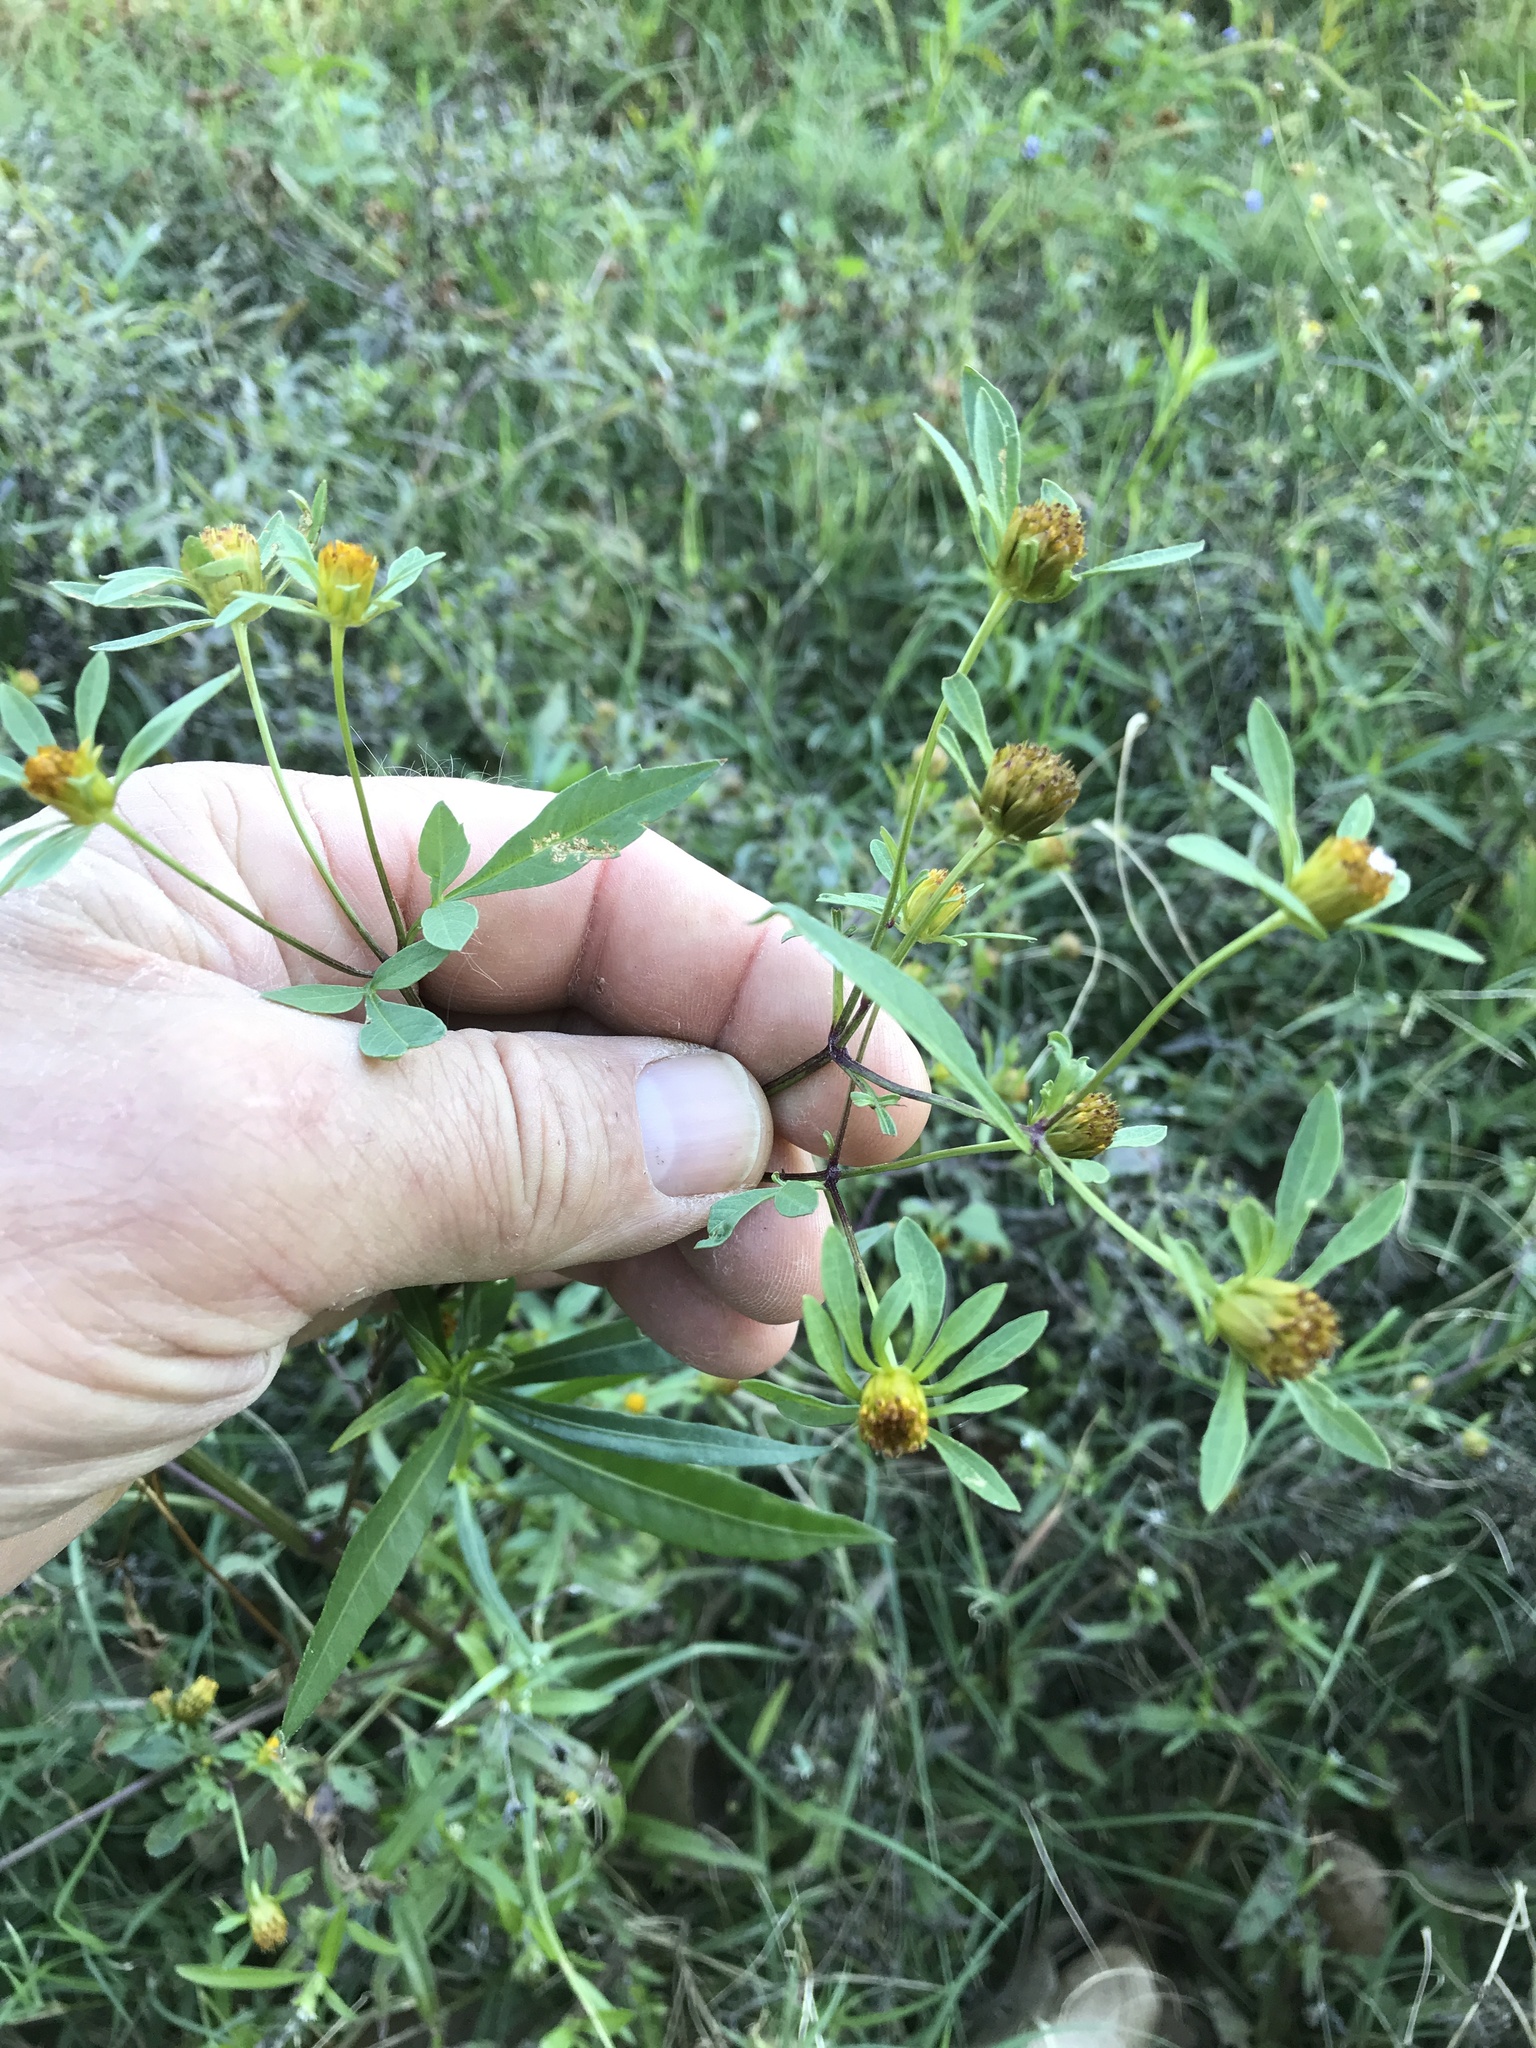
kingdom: Plantae
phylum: Tracheophyta
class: Magnoliopsida
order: Asterales
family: Asteraceae
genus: Bidens
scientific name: Bidens frondosa
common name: Beggarticks
